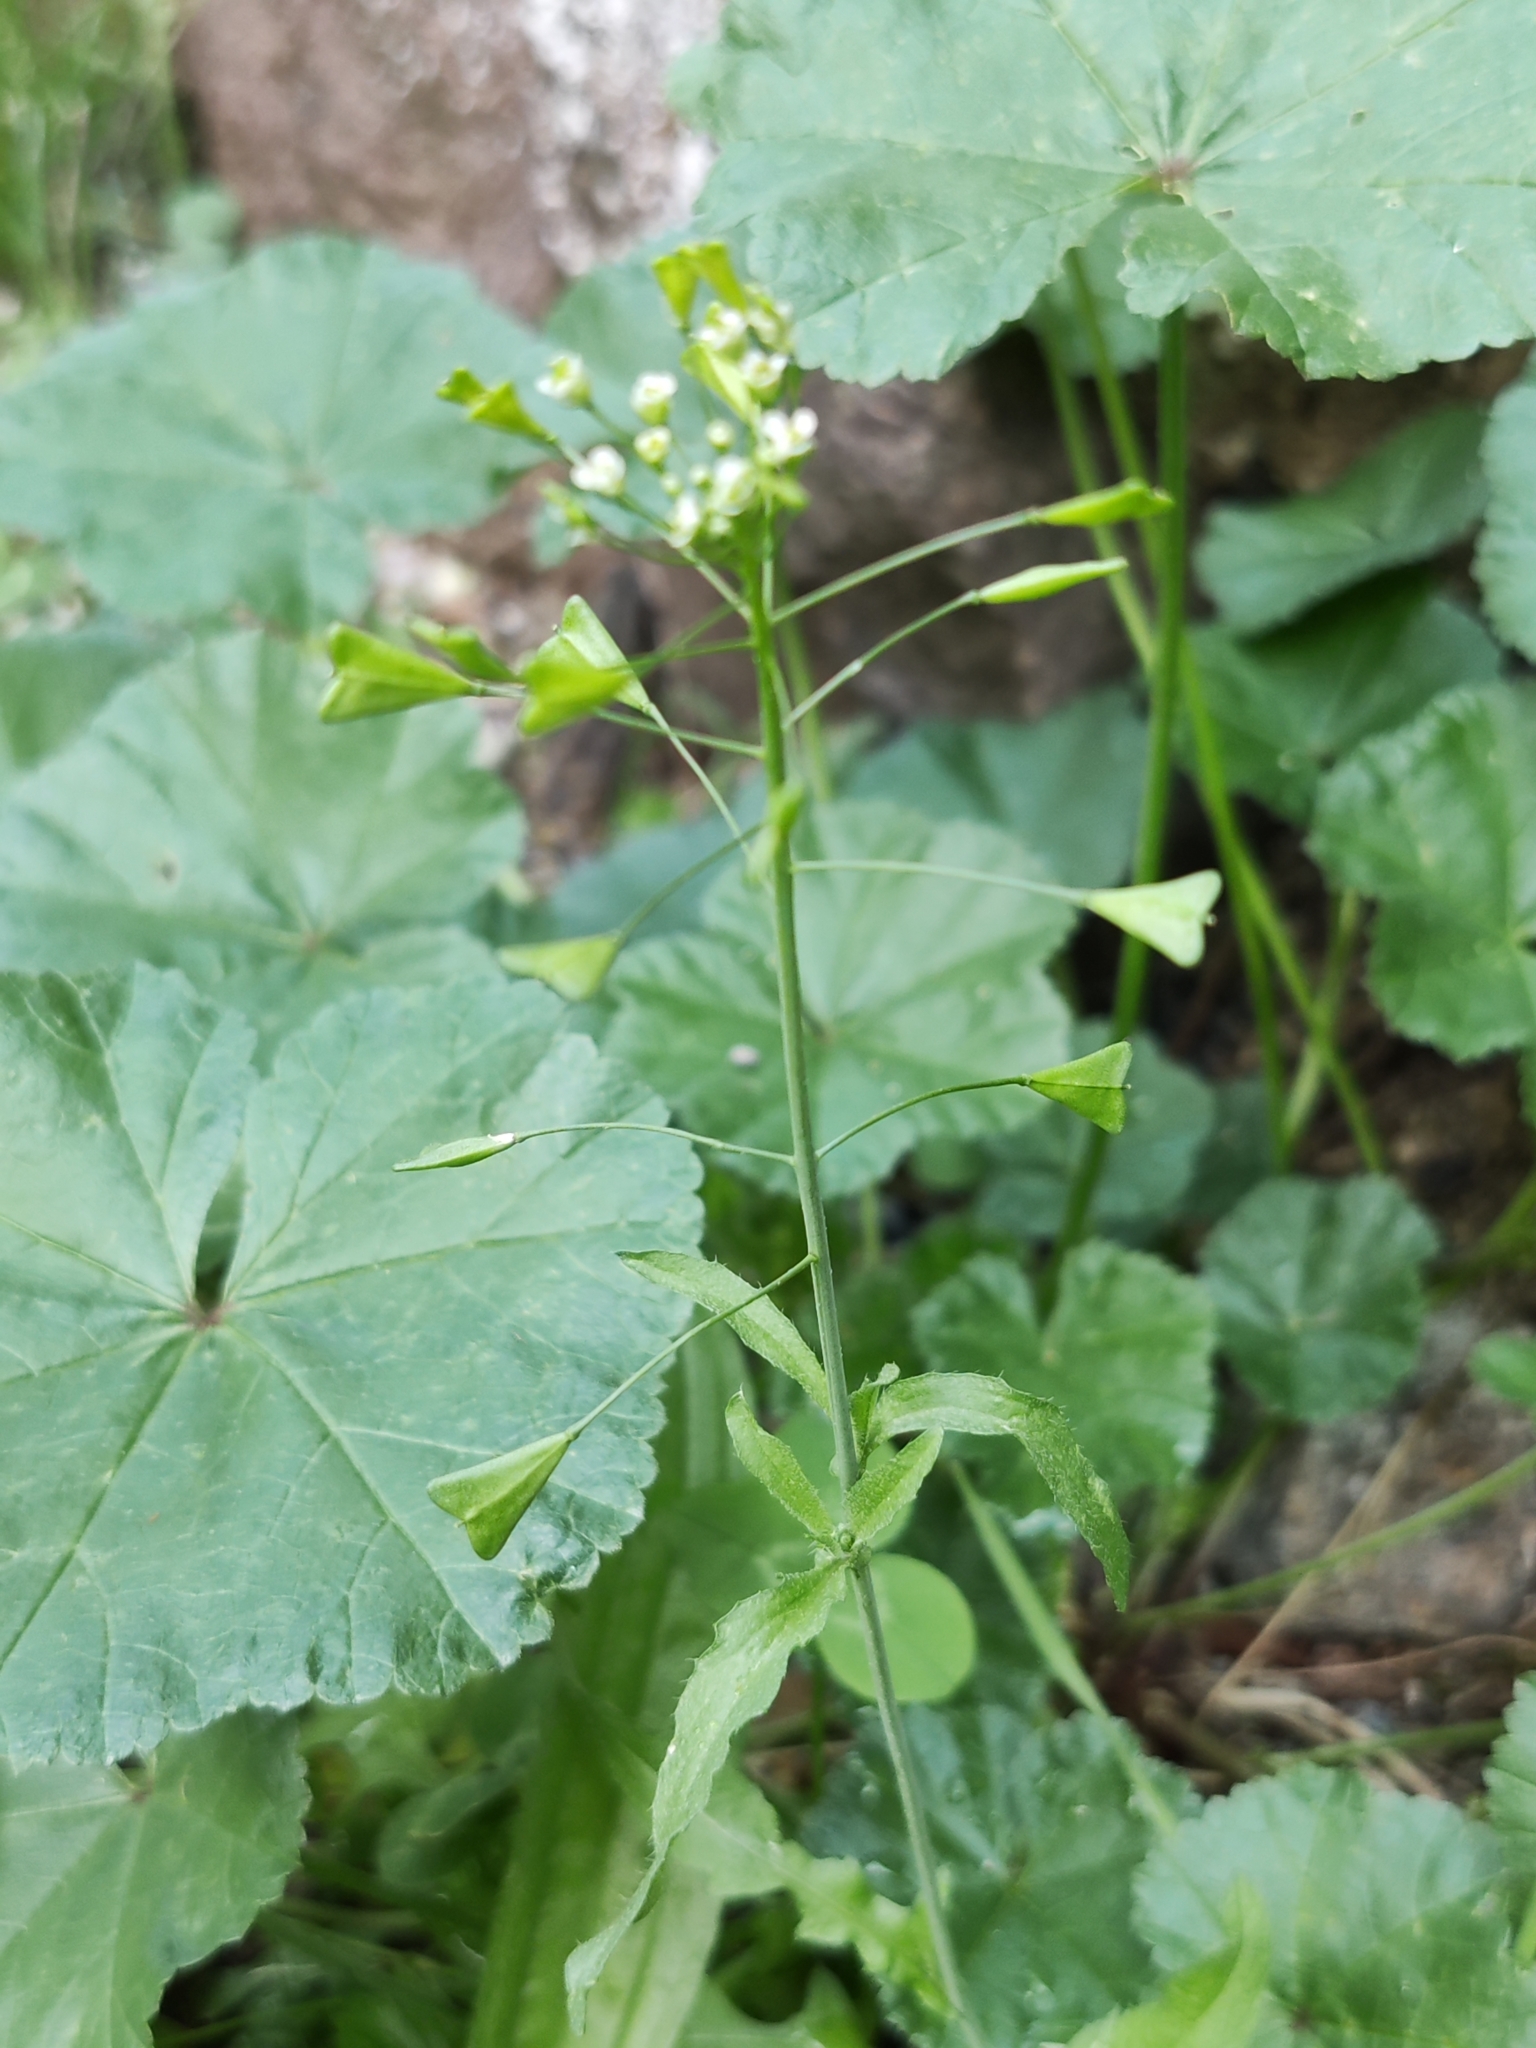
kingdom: Plantae
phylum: Tracheophyta
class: Magnoliopsida
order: Brassicales
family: Brassicaceae
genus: Capsella
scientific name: Capsella bursa-pastoris
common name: Shepherd's purse
